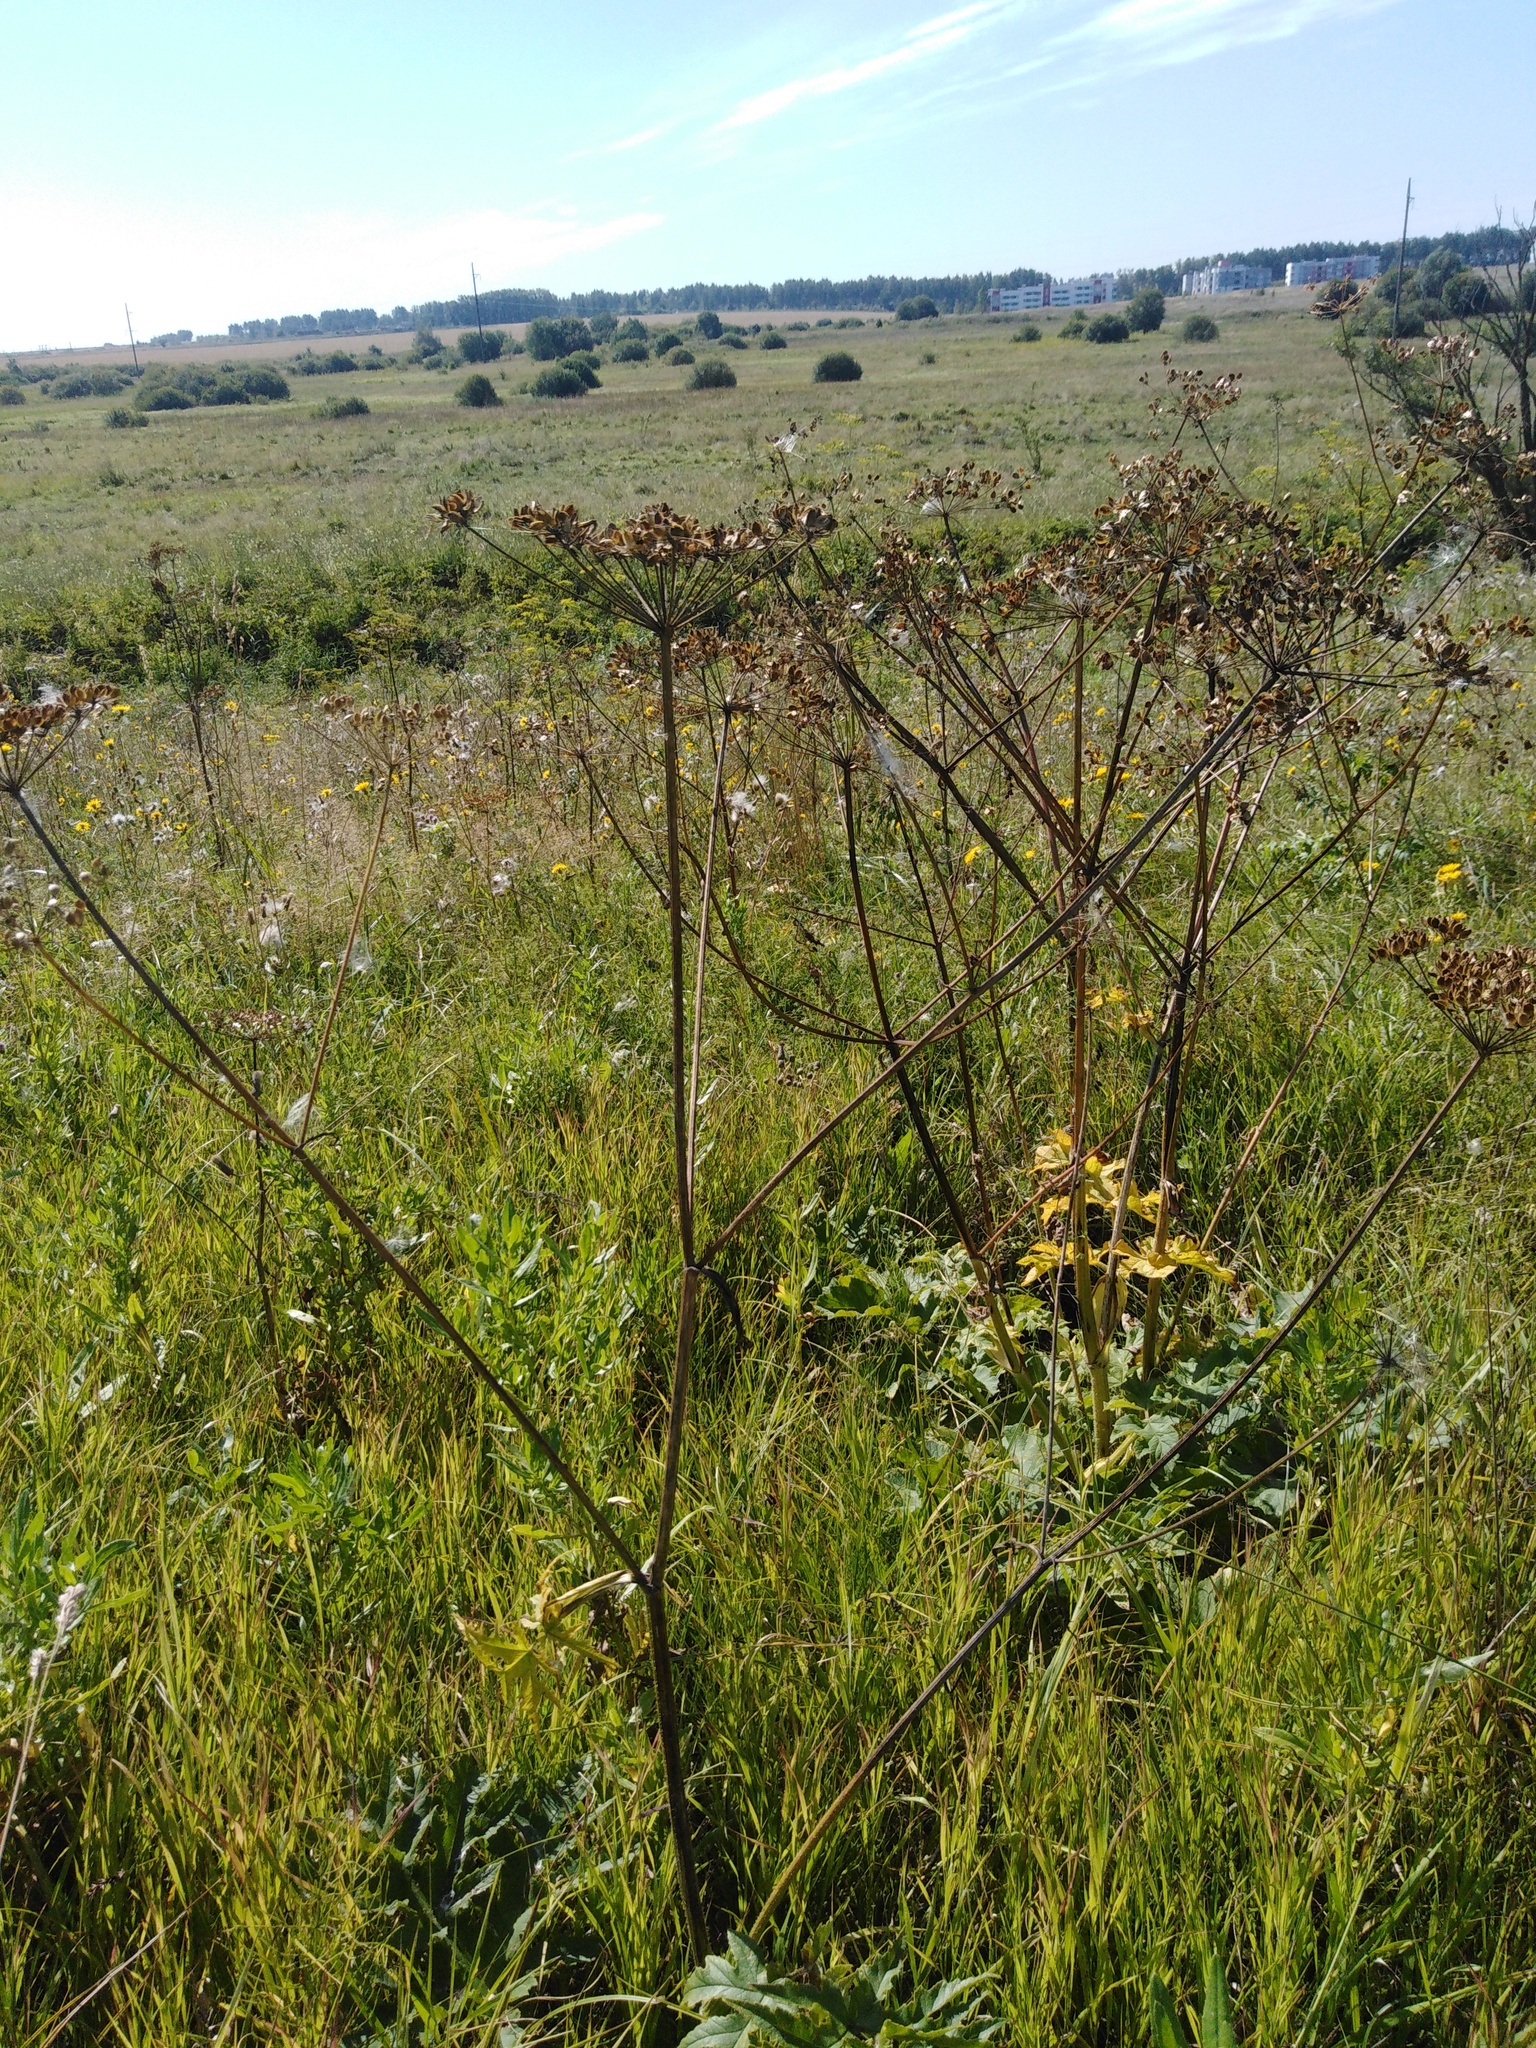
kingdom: Plantae
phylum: Tracheophyta
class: Magnoliopsida
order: Apiales
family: Apiaceae
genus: Heracleum
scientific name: Heracleum sphondylium
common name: Hogweed
